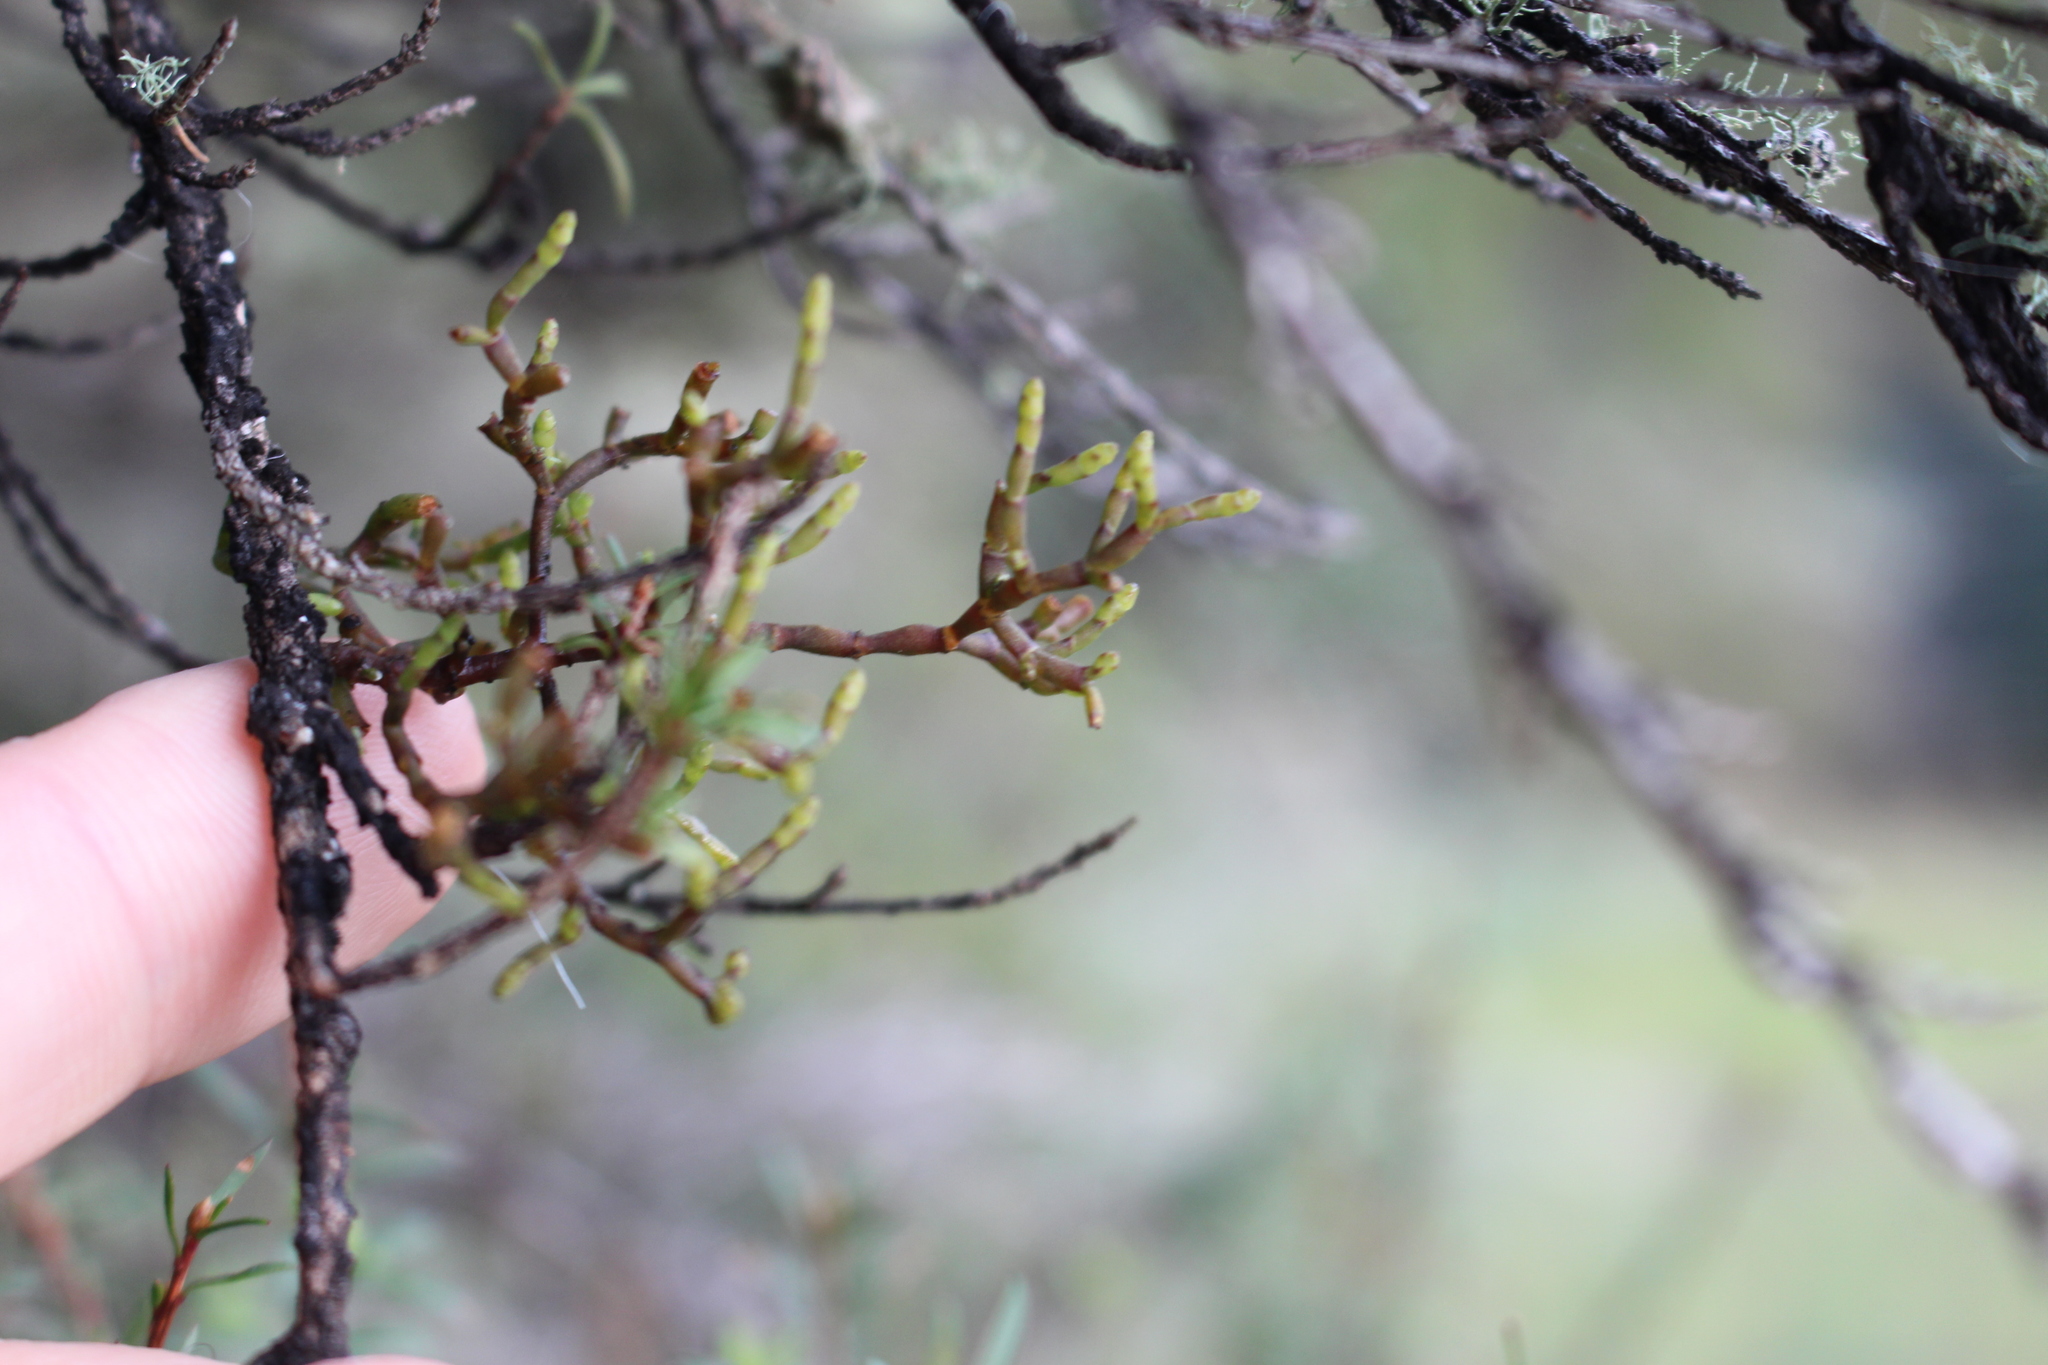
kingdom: Plantae
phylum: Tracheophyta
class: Magnoliopsida
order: Santalales
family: Viscaceae
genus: Korthalsella
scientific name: Korthalsella salicornioides
